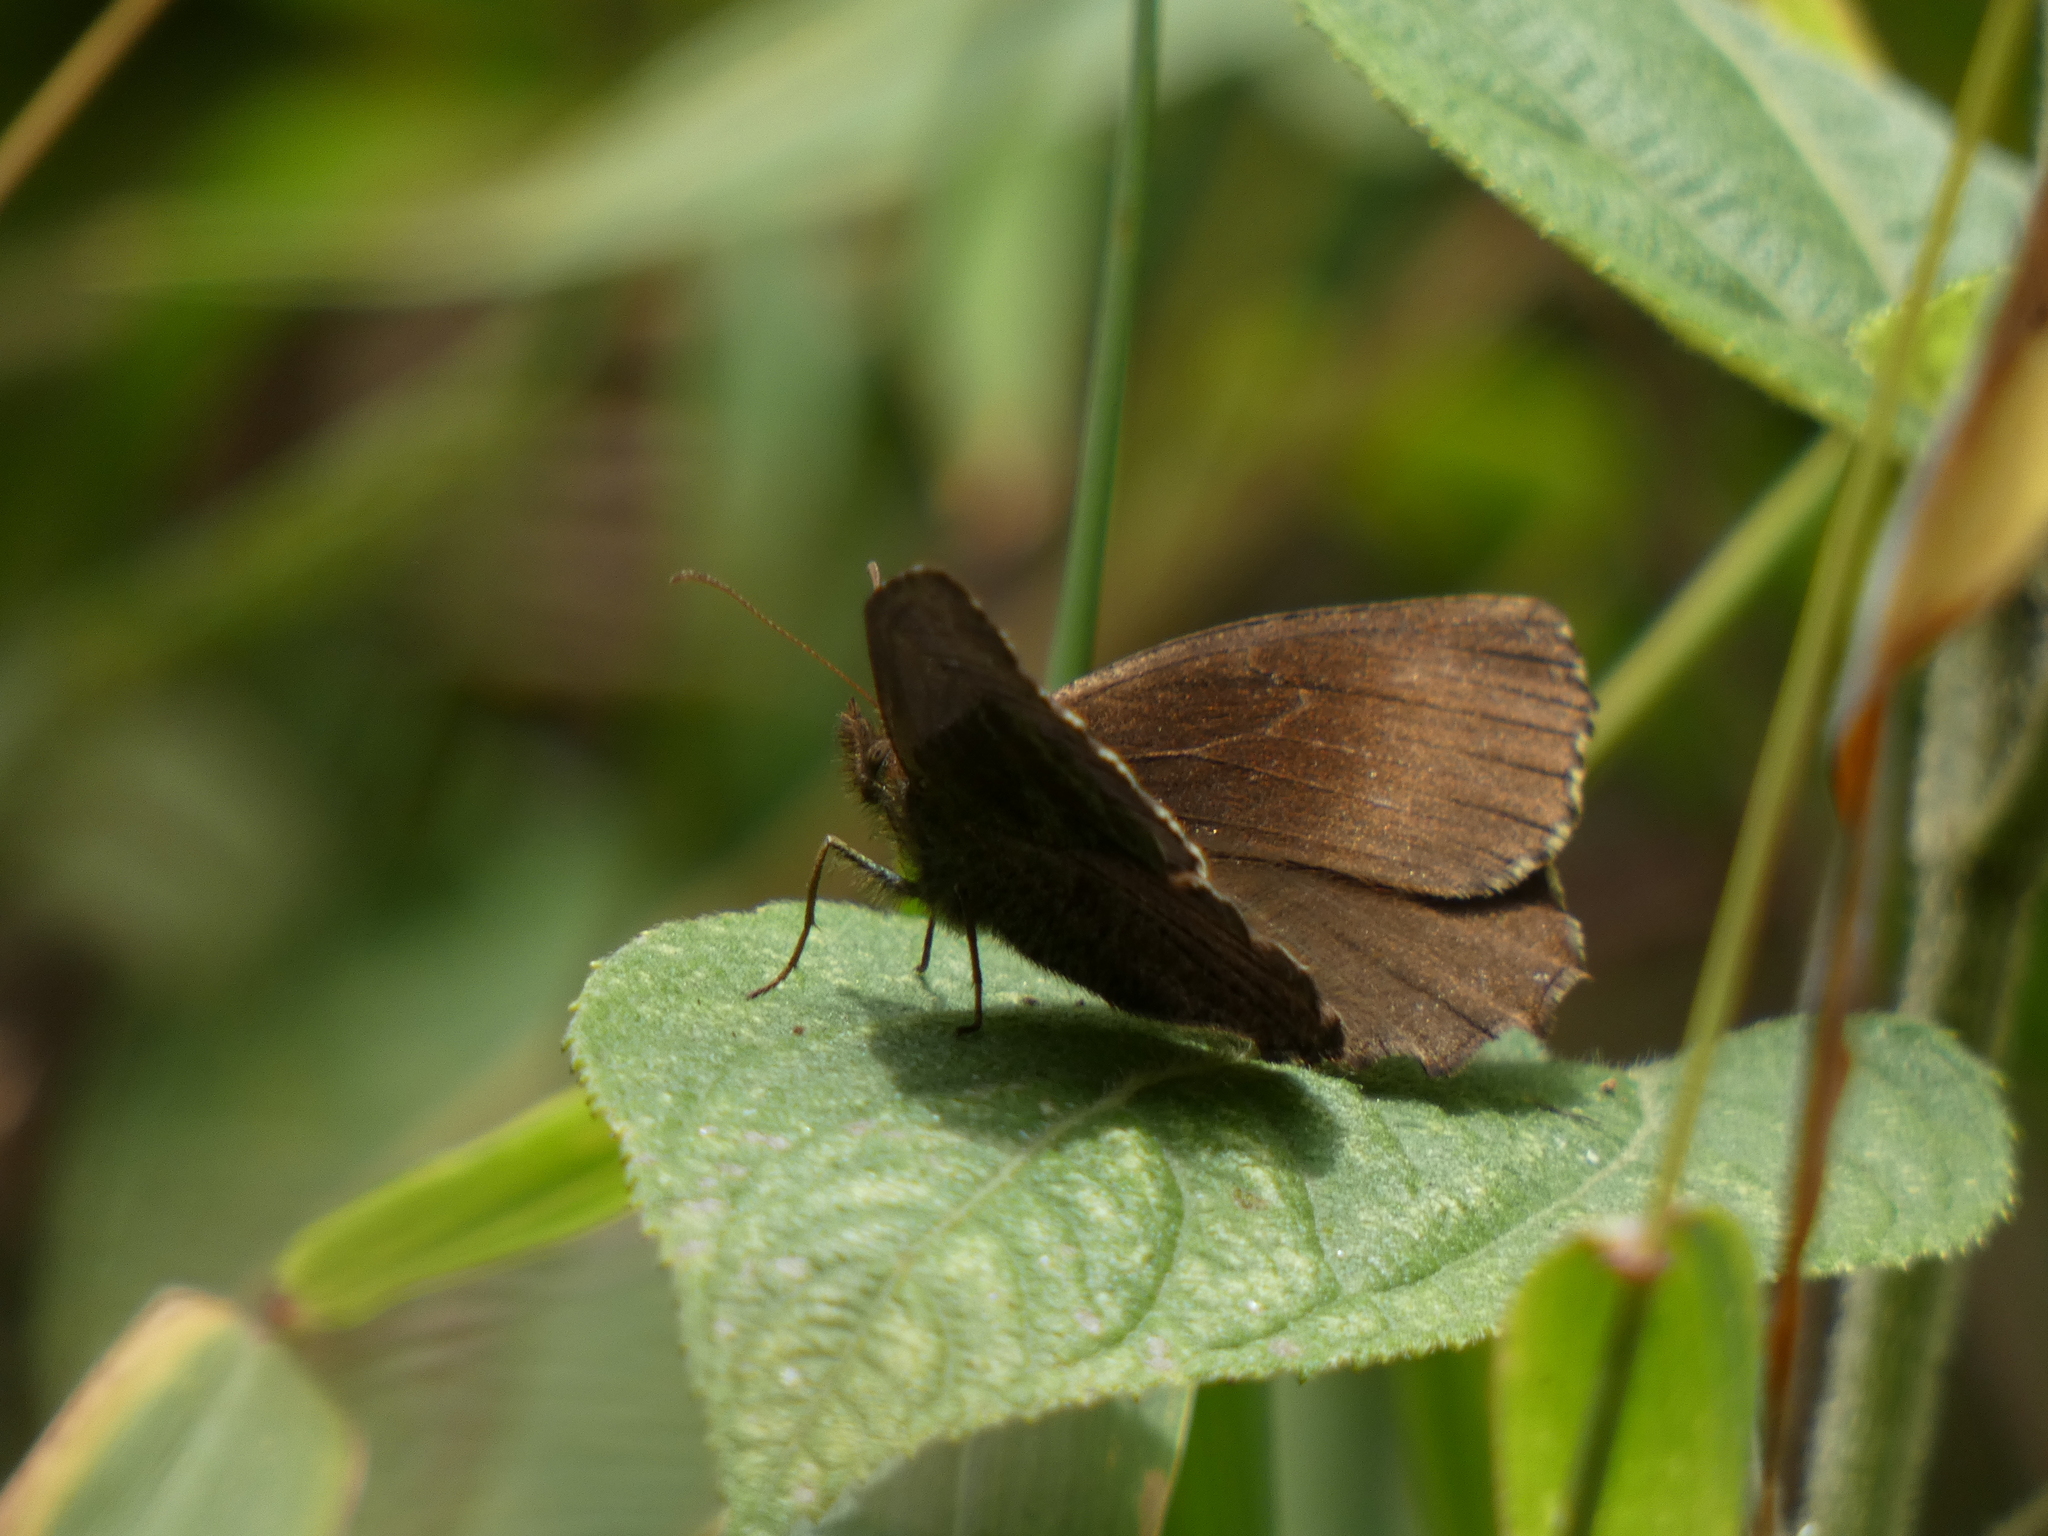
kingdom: Animalia
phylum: Arthropoda
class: Insecta
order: Lepidoptera
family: Nymphalidae
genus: Panyapedaliodes
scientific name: Panyapedaliodes drymaea
